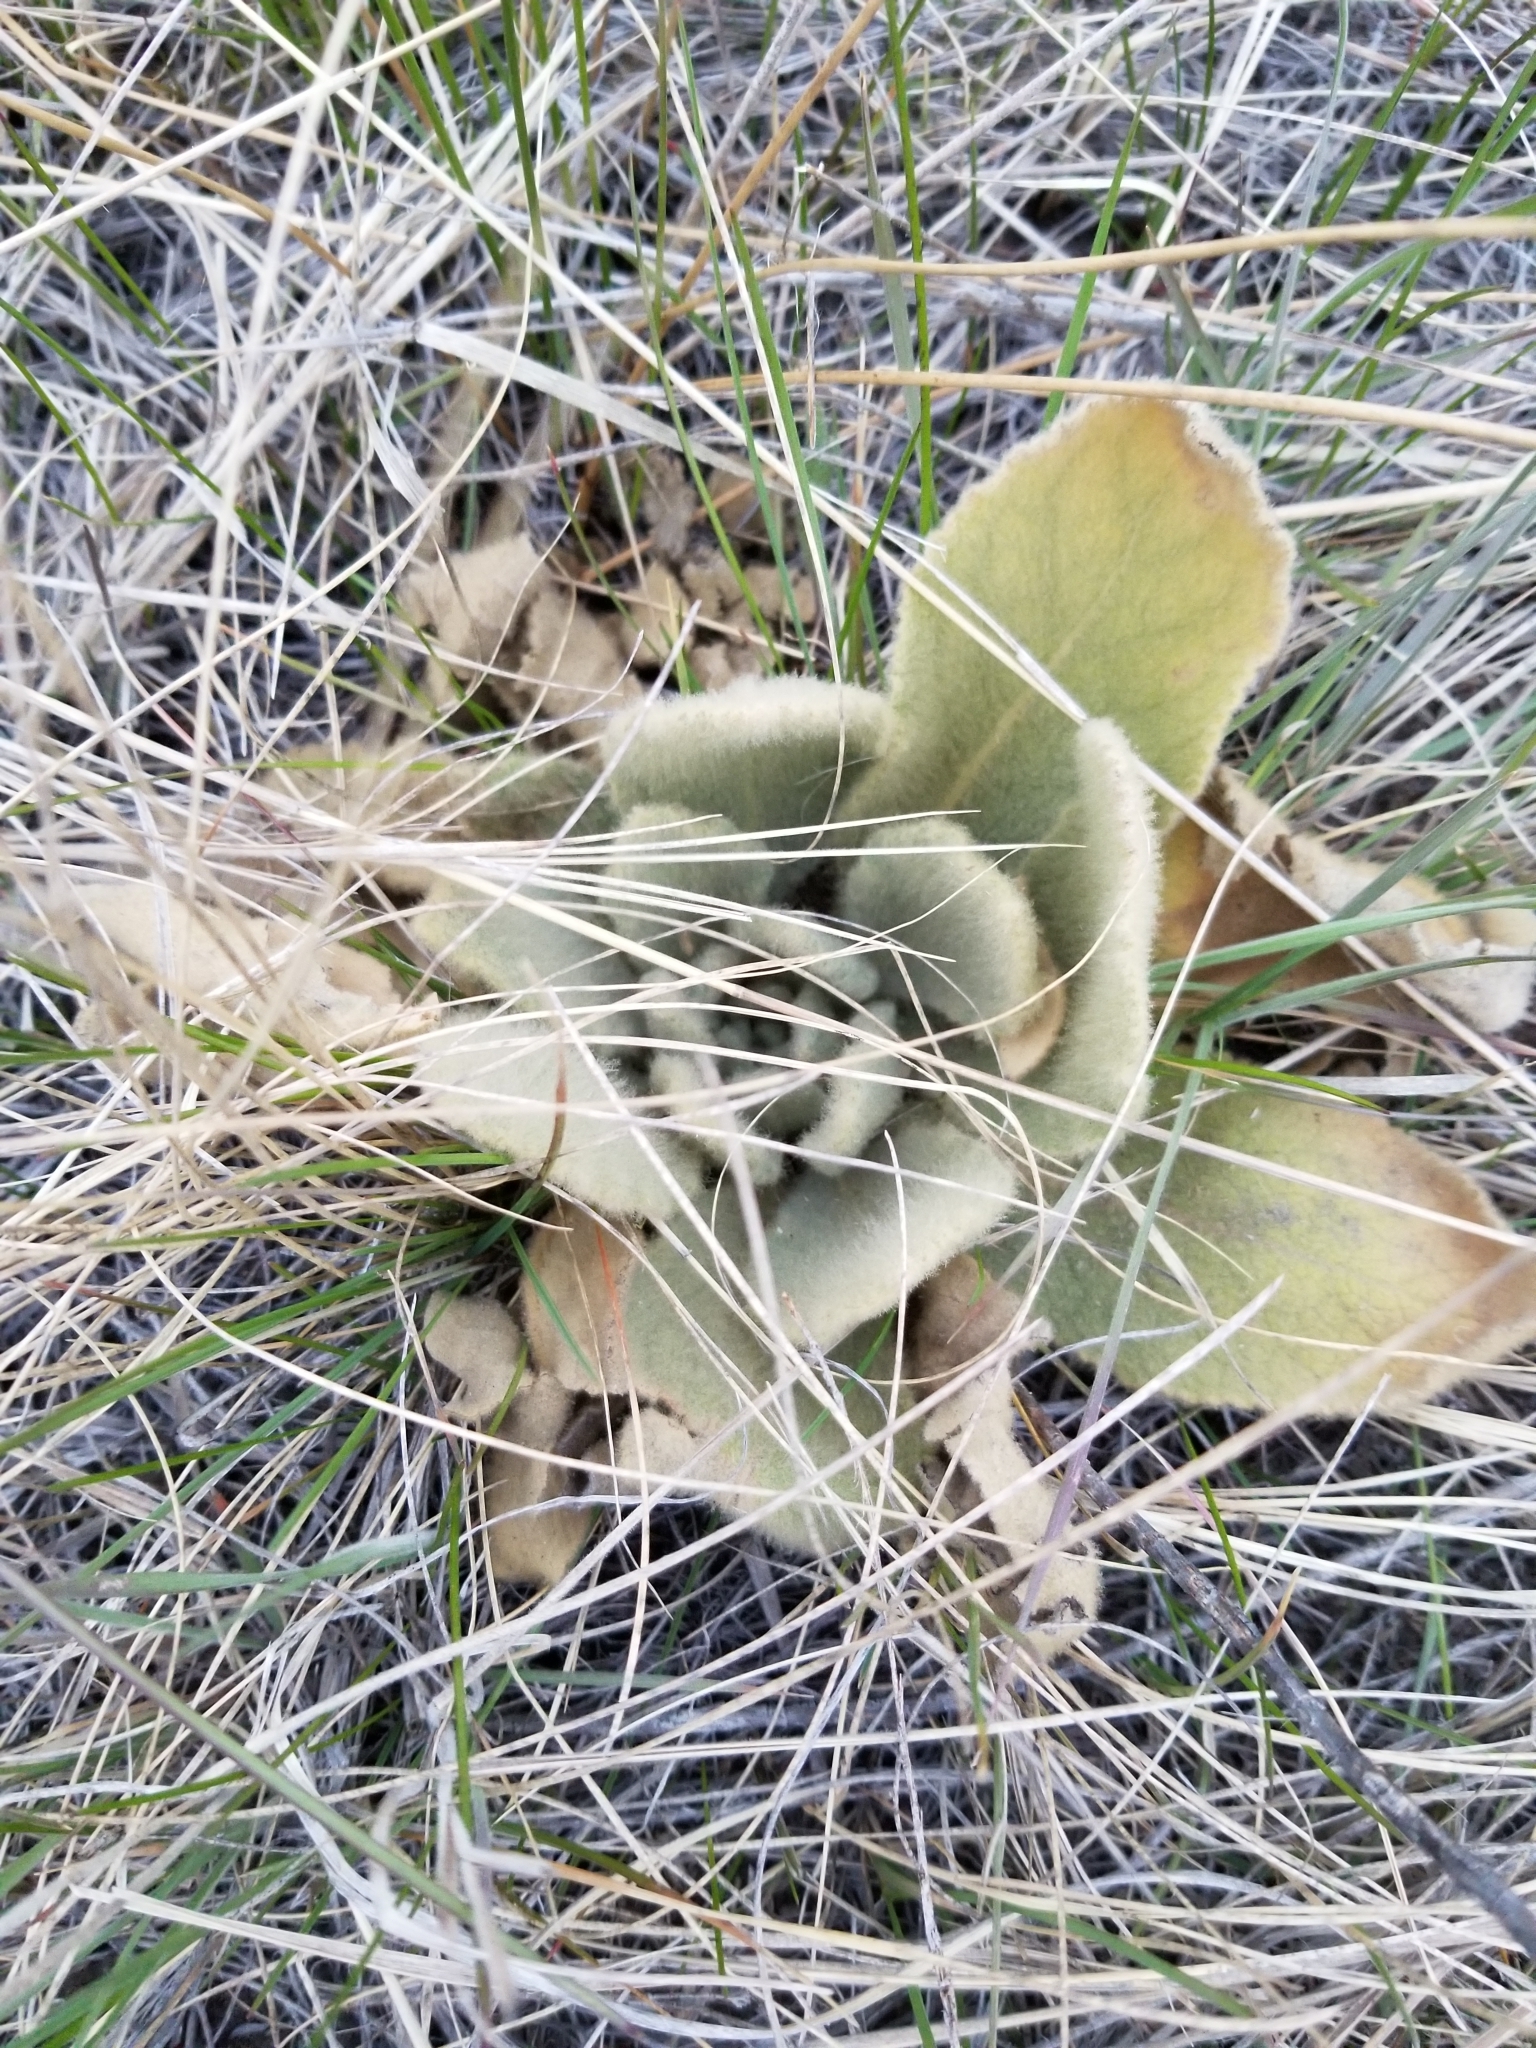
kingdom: Plantae
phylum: Tracheophyta
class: Magnoliopsida
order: Lamiales
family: Scrophulariaceae
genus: Verbascum
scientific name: Verbascum thapsus
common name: Common mullein
